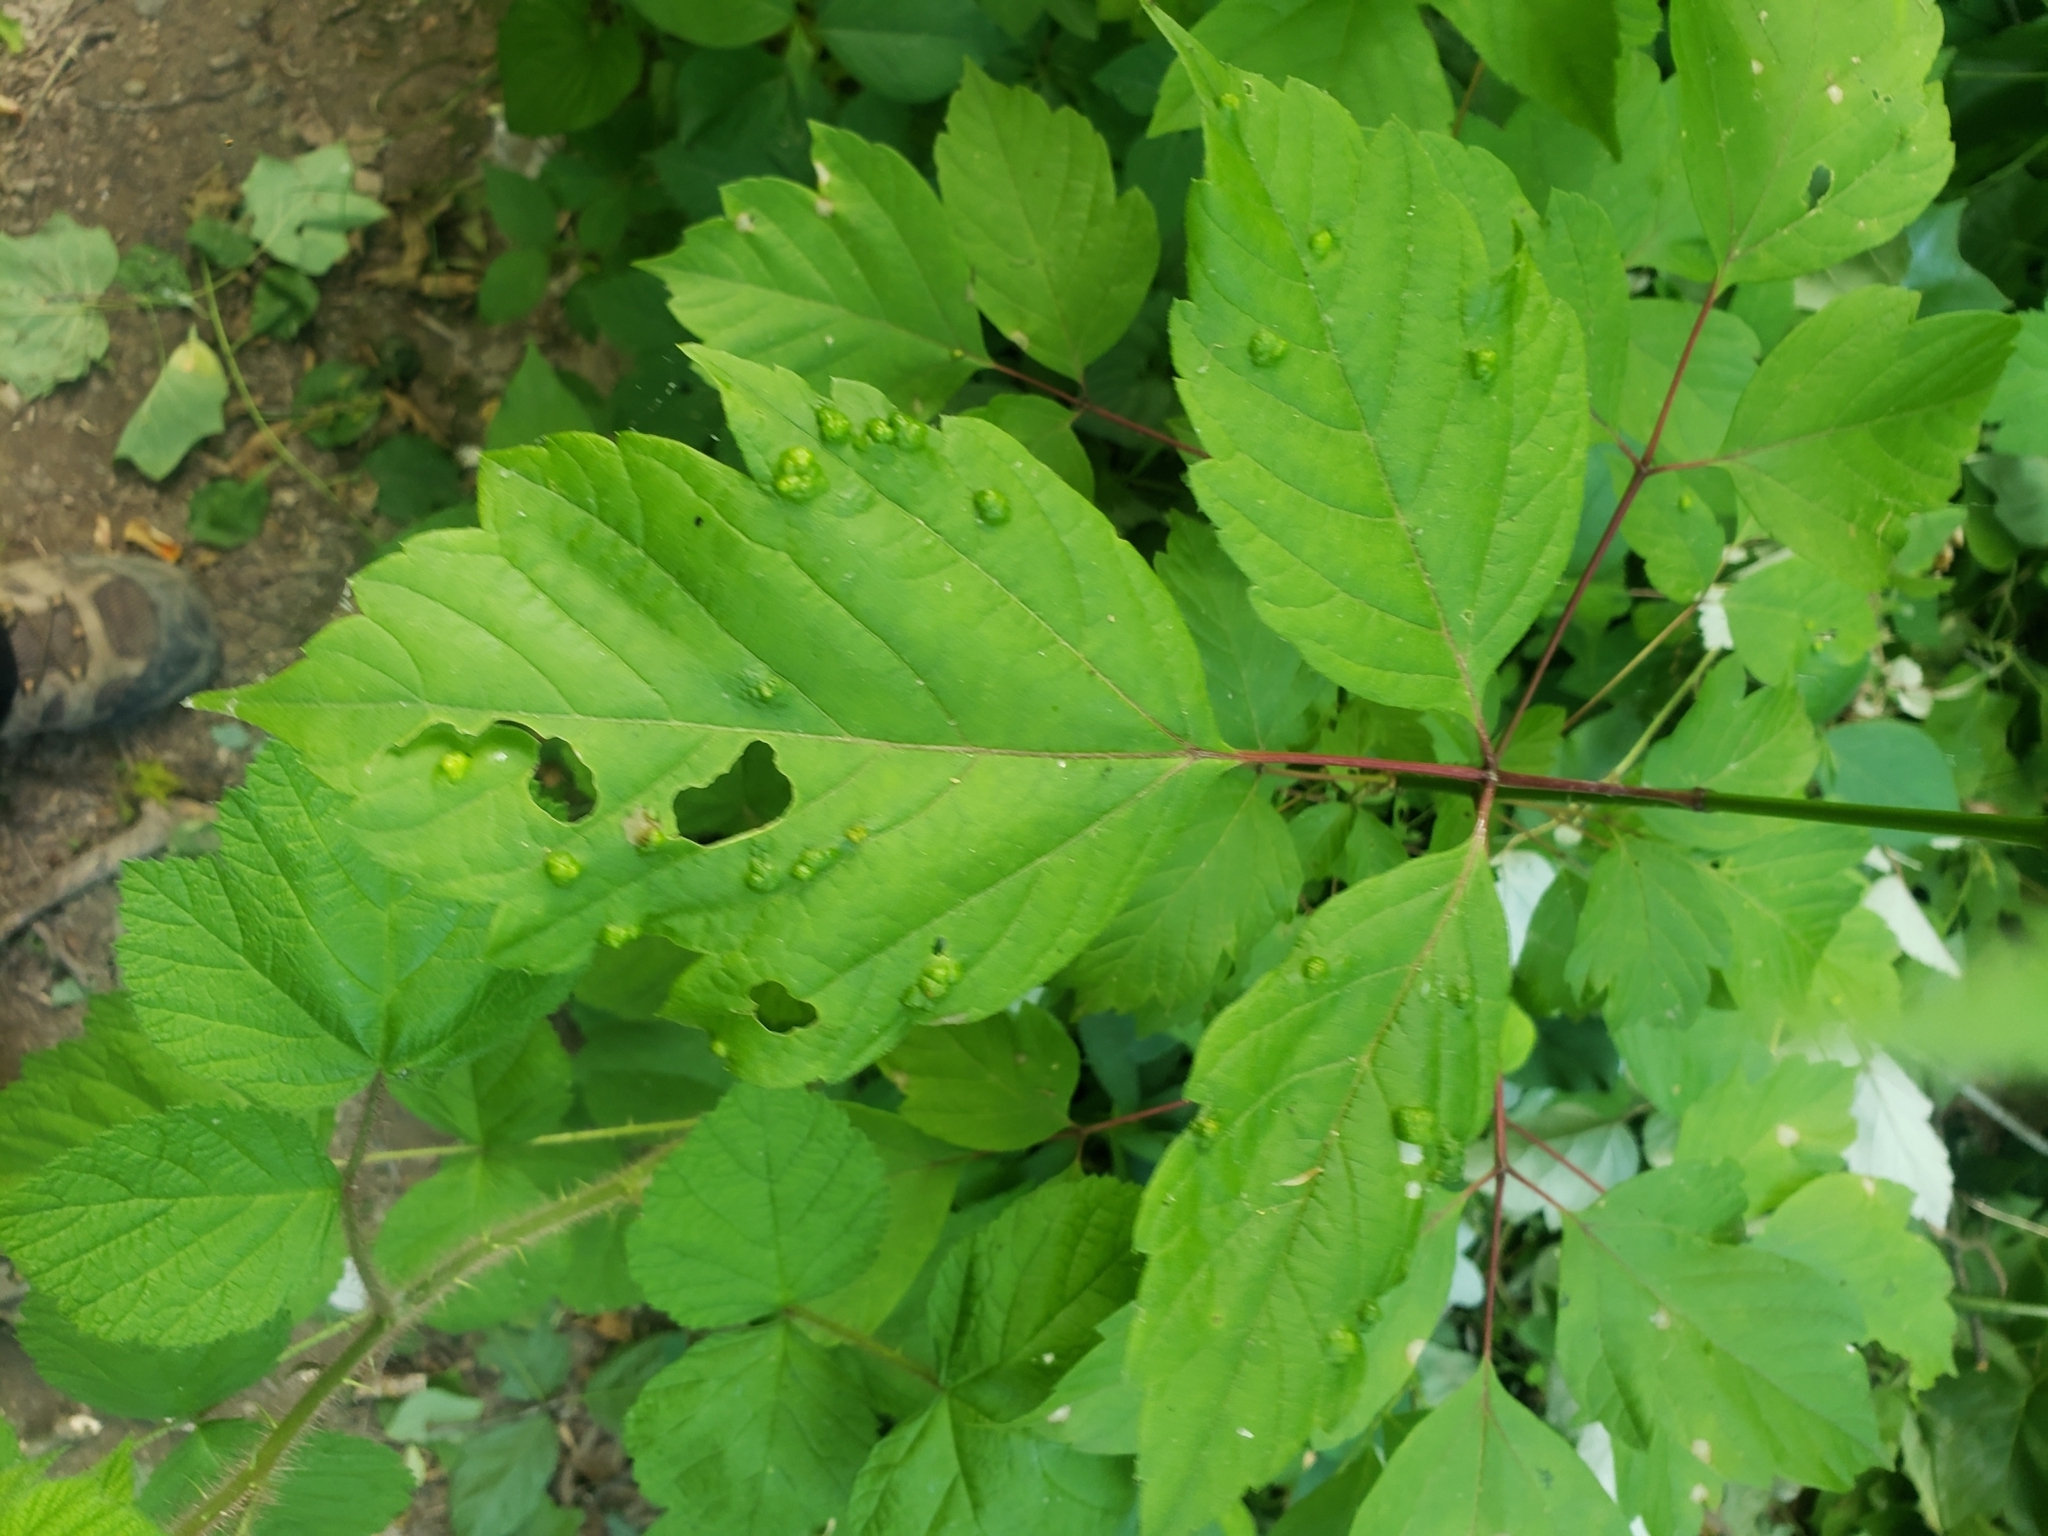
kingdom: Animalia
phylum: Arthropoda
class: Arachnida
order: Trombidiformes
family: Eriophyidae
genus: Aceria
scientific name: Aceria
